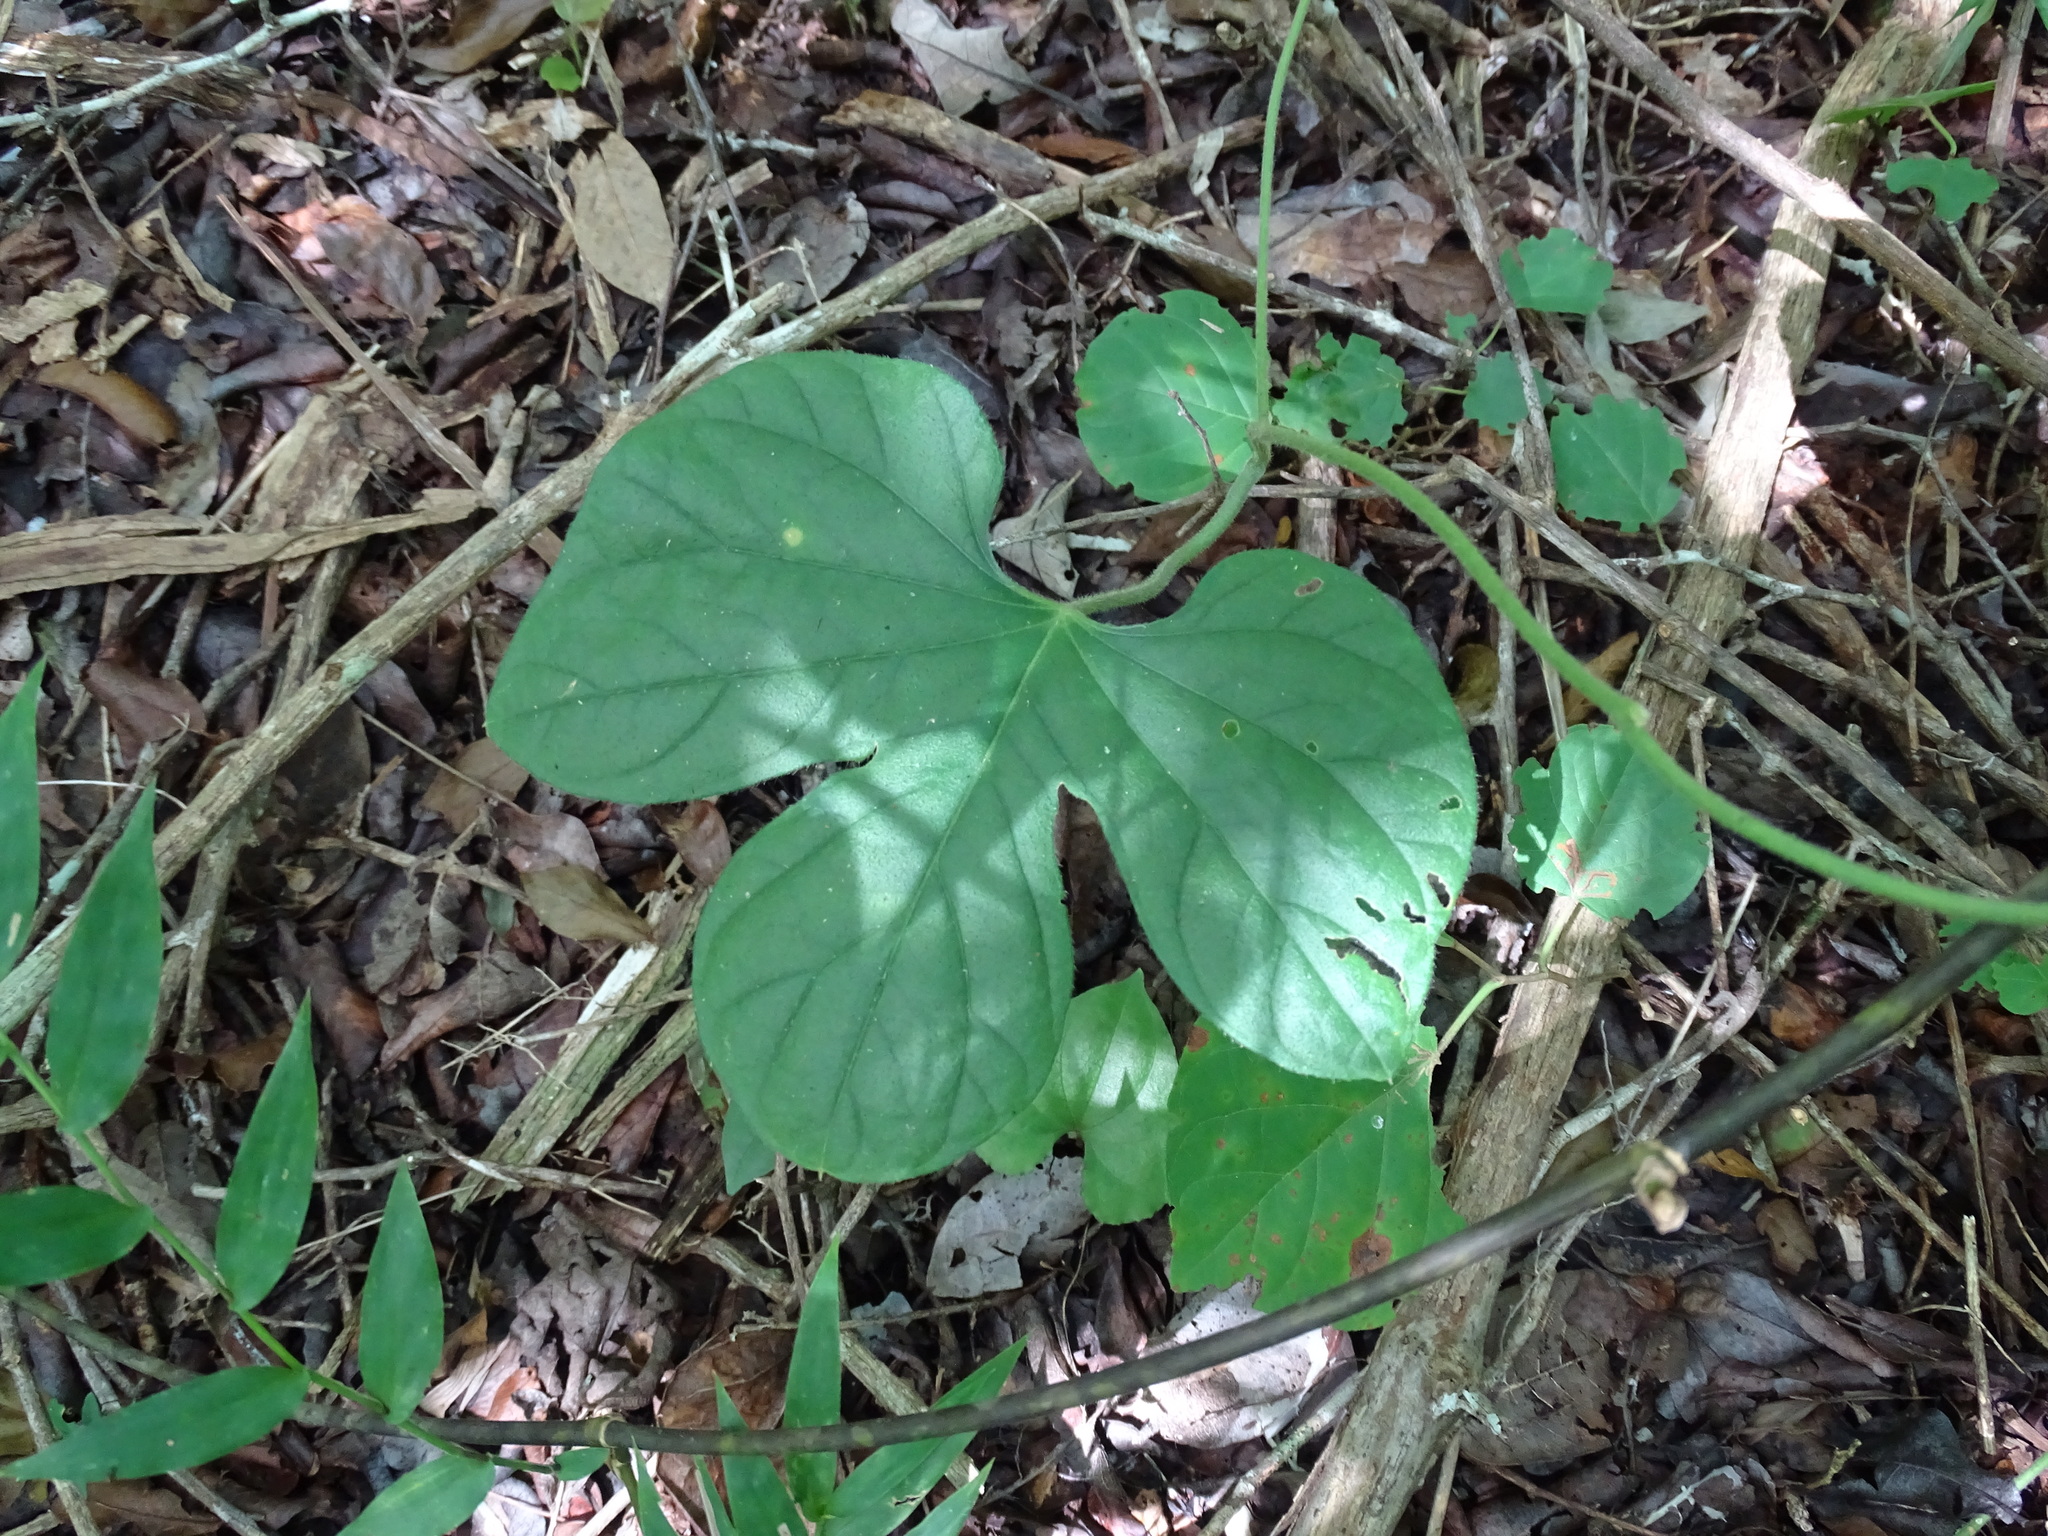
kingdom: Plantae
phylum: Tracheophyta
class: Magnoliopsida
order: Solanales
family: Convolvulaceae
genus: Ipomoea
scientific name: Ipomoea peteri
